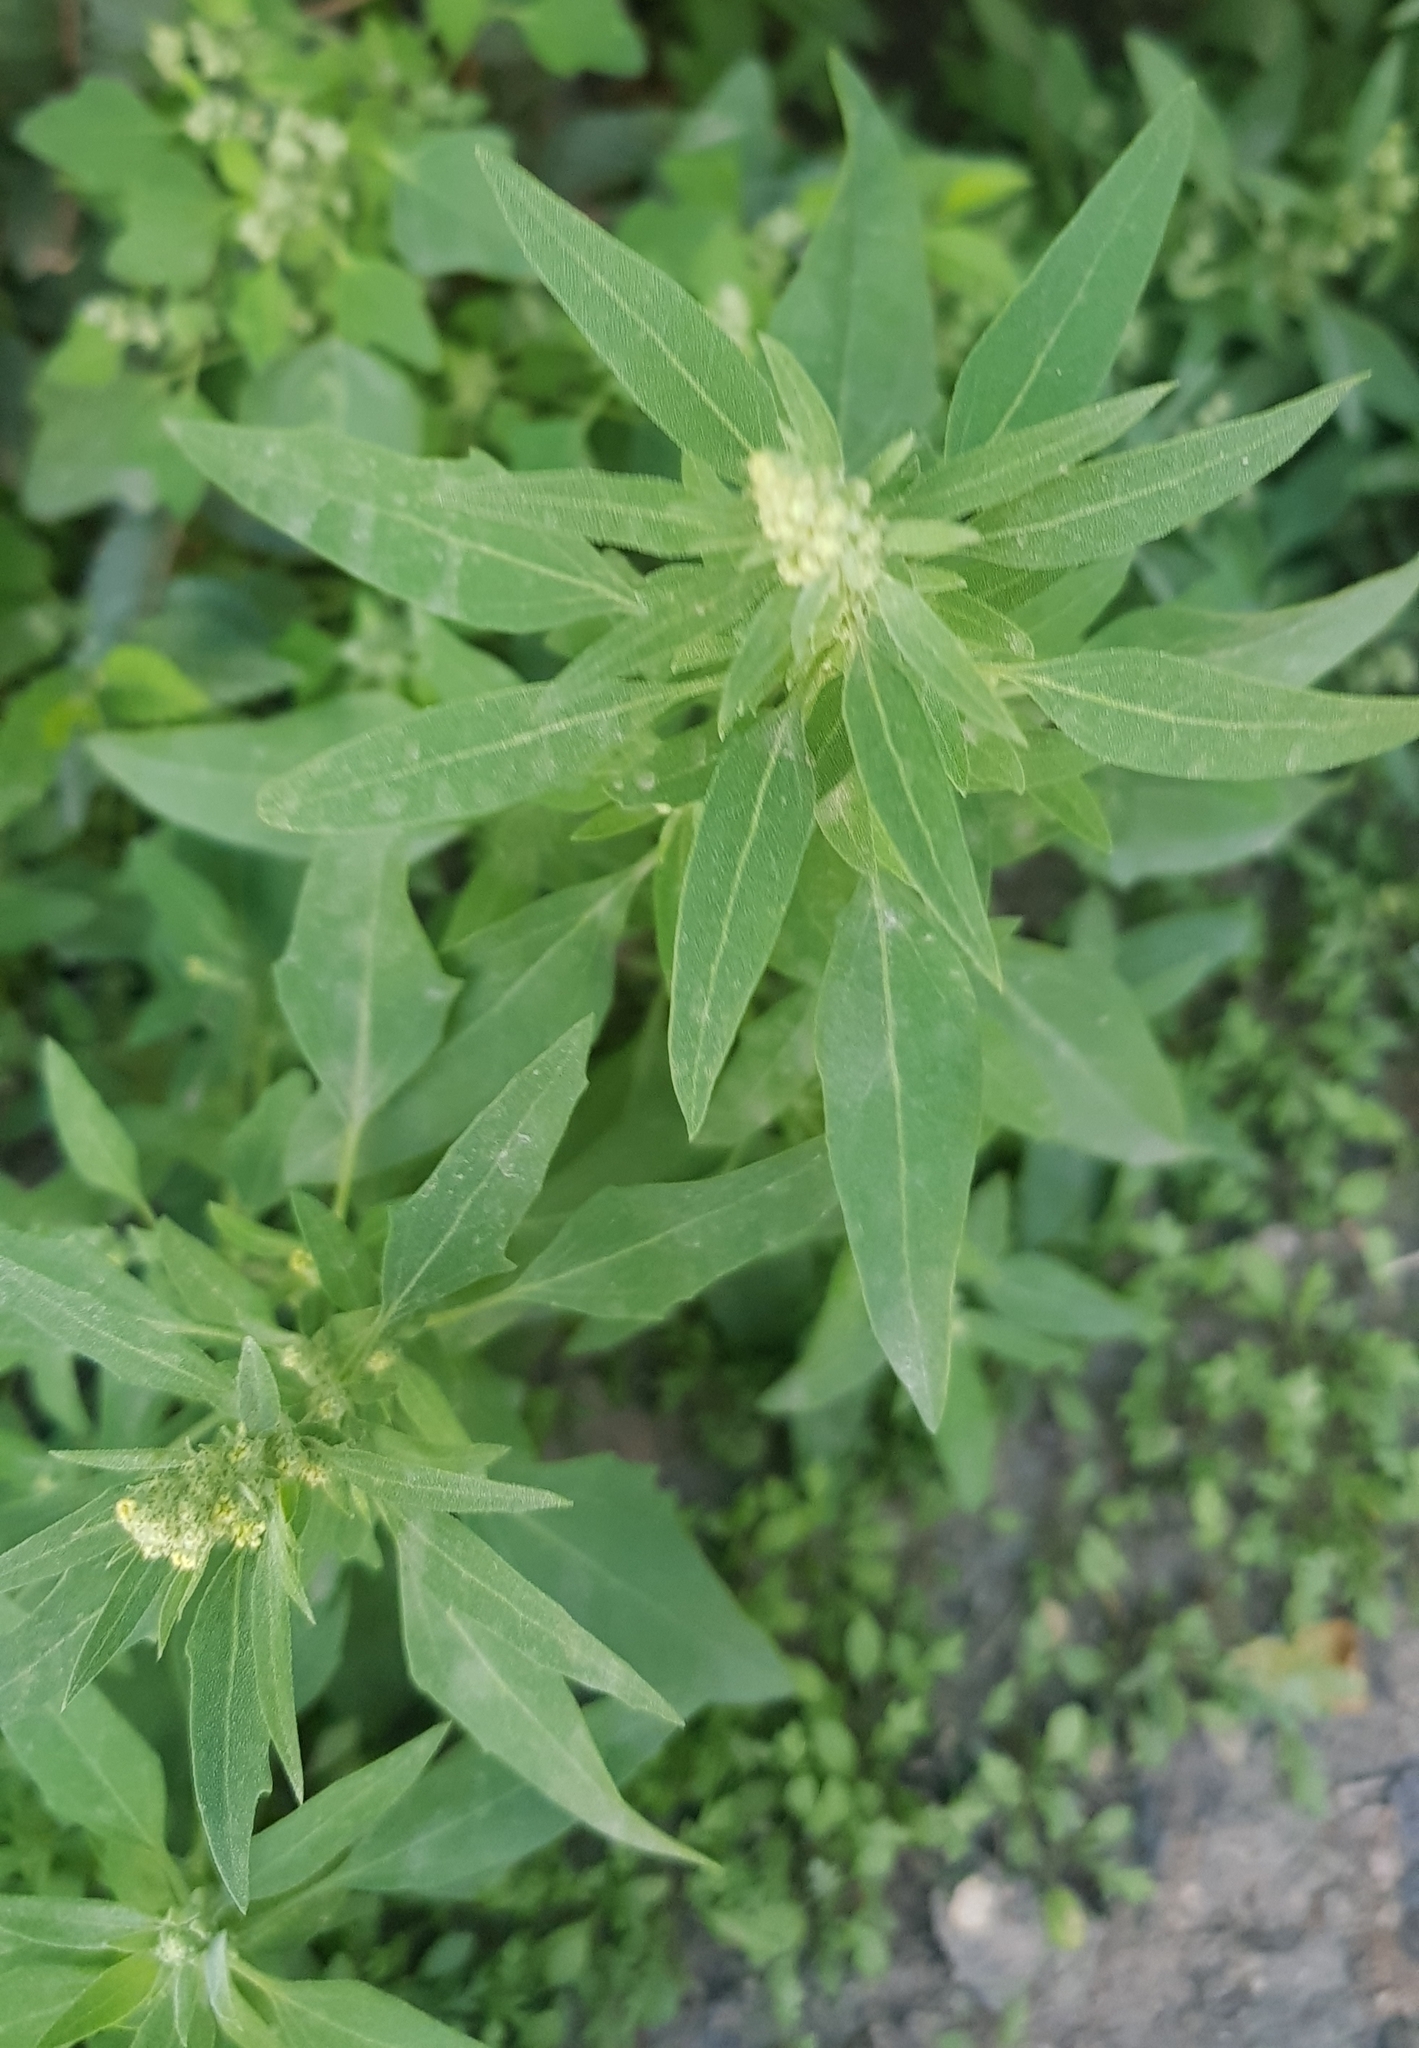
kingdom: Plantae
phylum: Tracheophyta
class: Magnoliopsida
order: Caryophyllales
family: Amaranthaceae
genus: Bassia
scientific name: Bassia scoparia
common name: Belvedere
